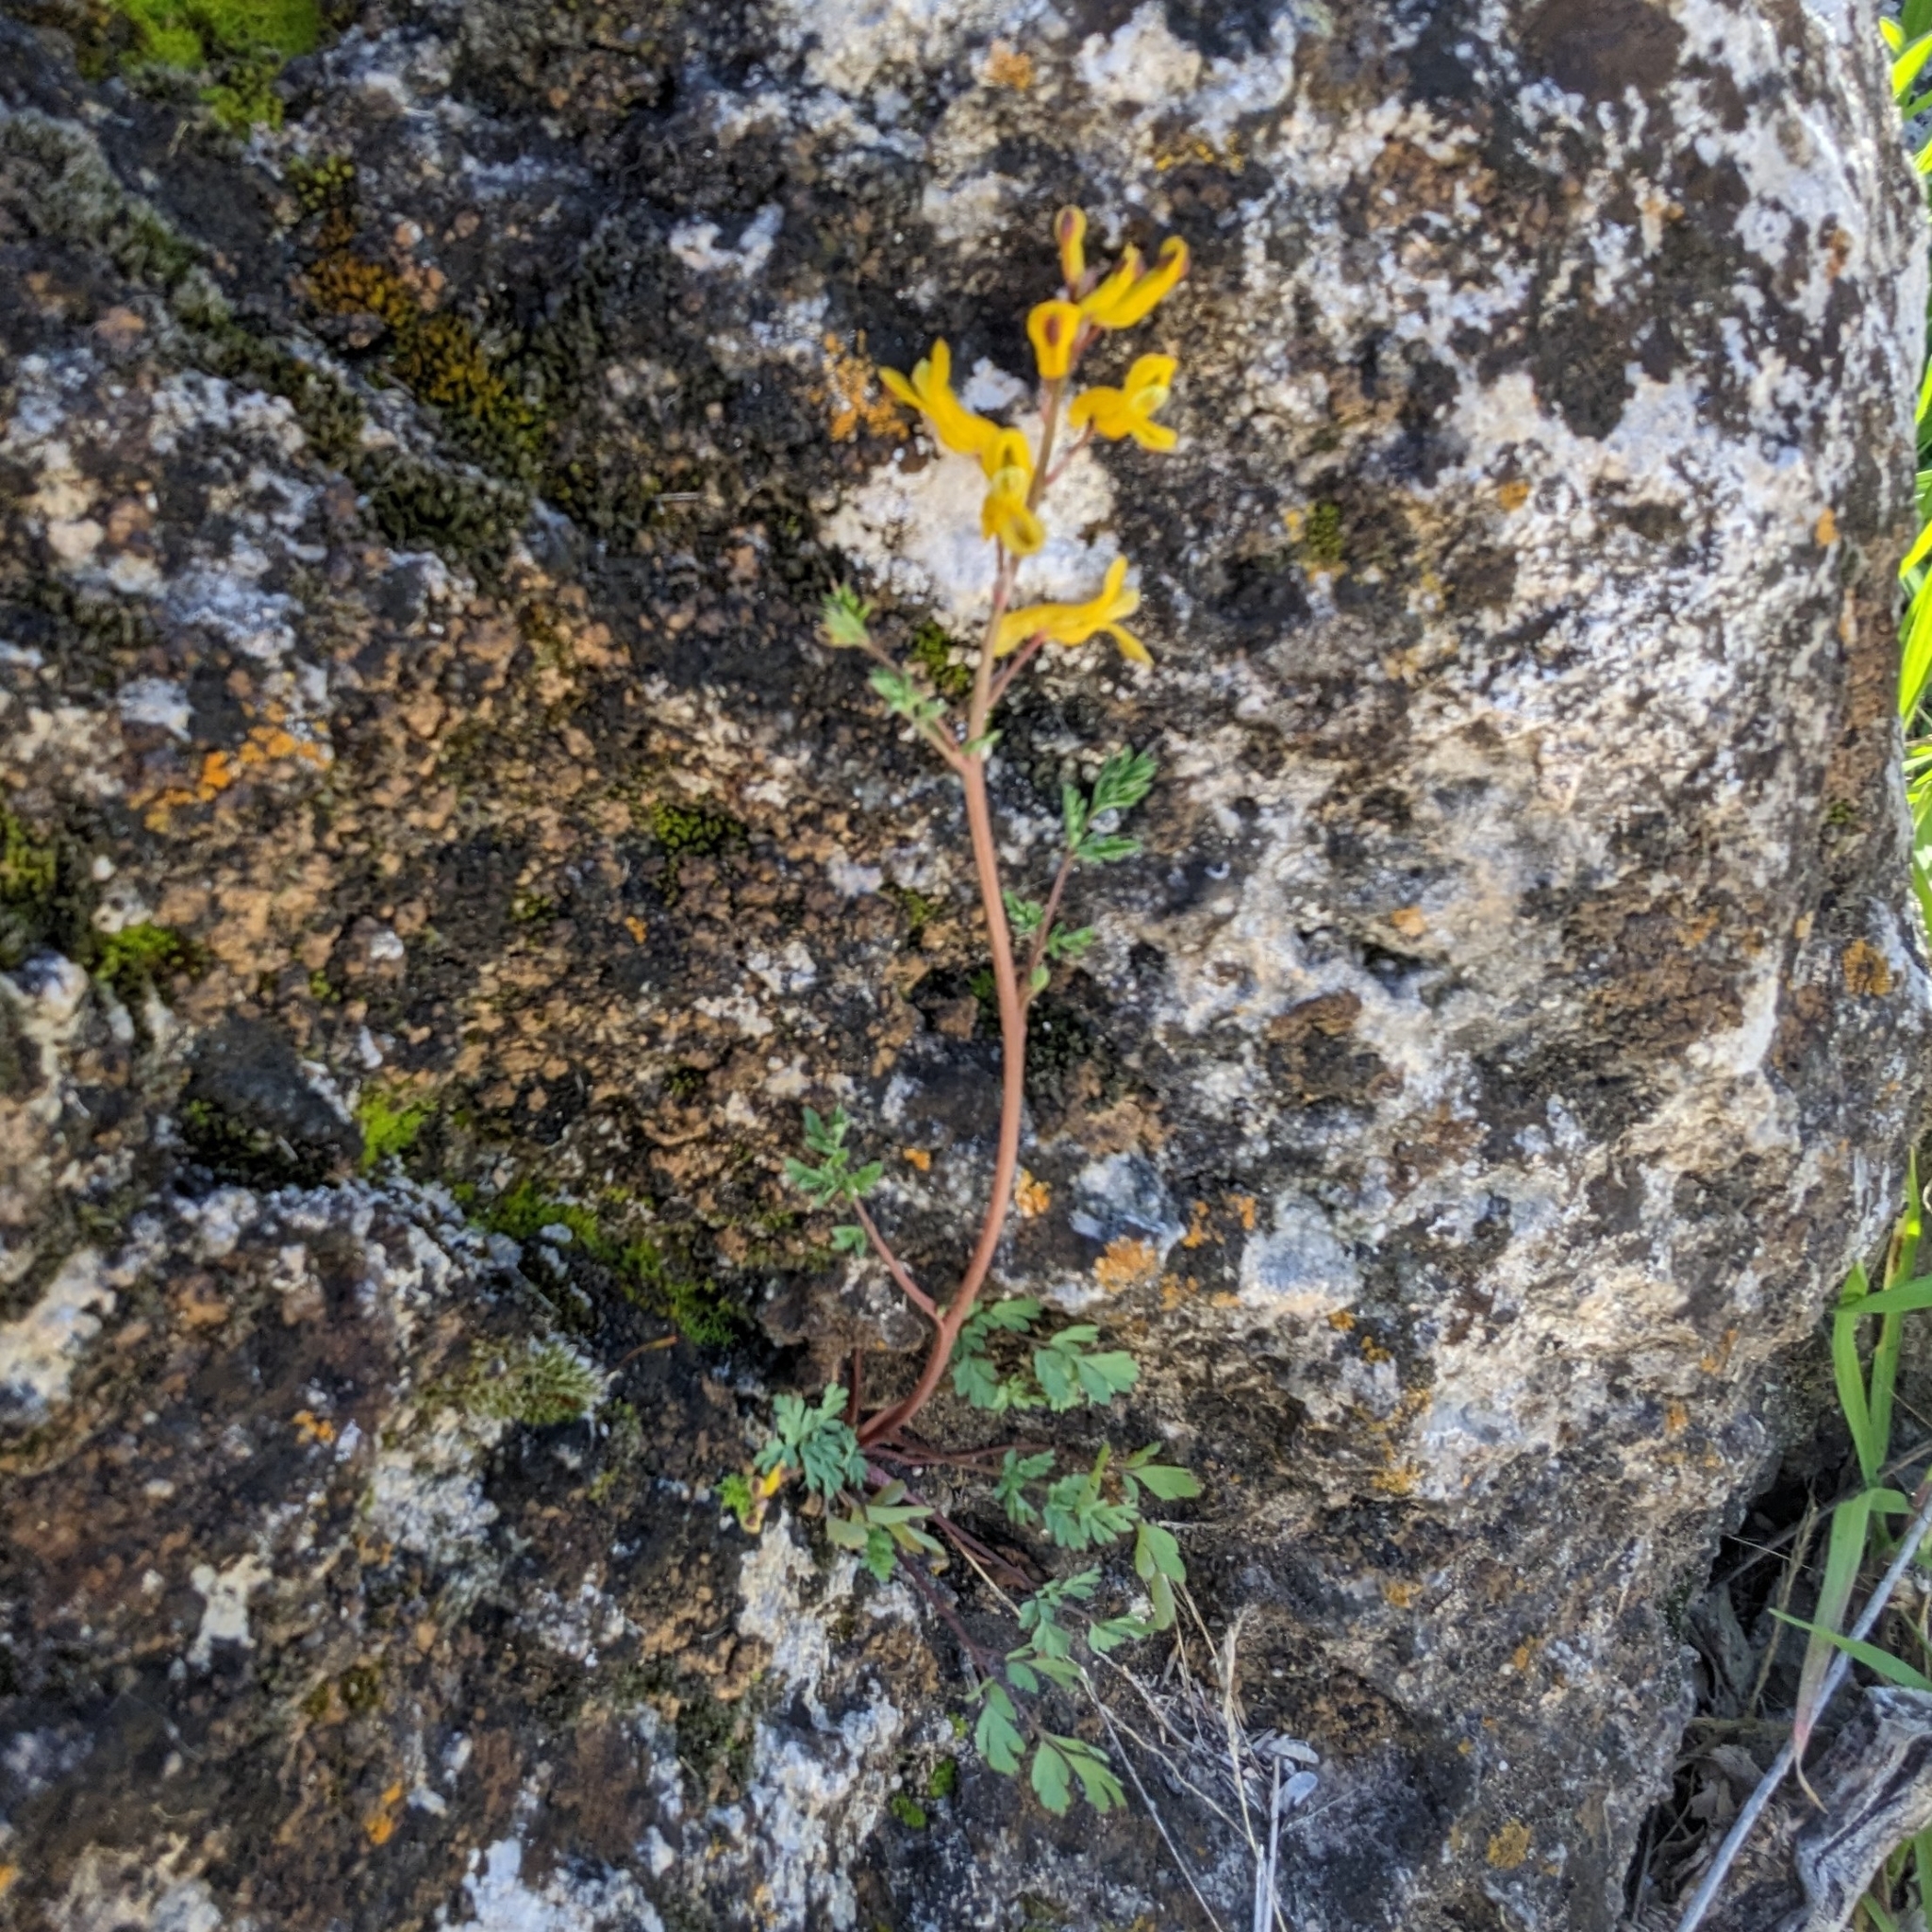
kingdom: Plantae
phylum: Tracheophyta
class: Magnoliopsida
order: Ranunculales
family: Papaveraceae
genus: Corydalis
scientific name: Corydalis aurea
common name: Golden corydalis
